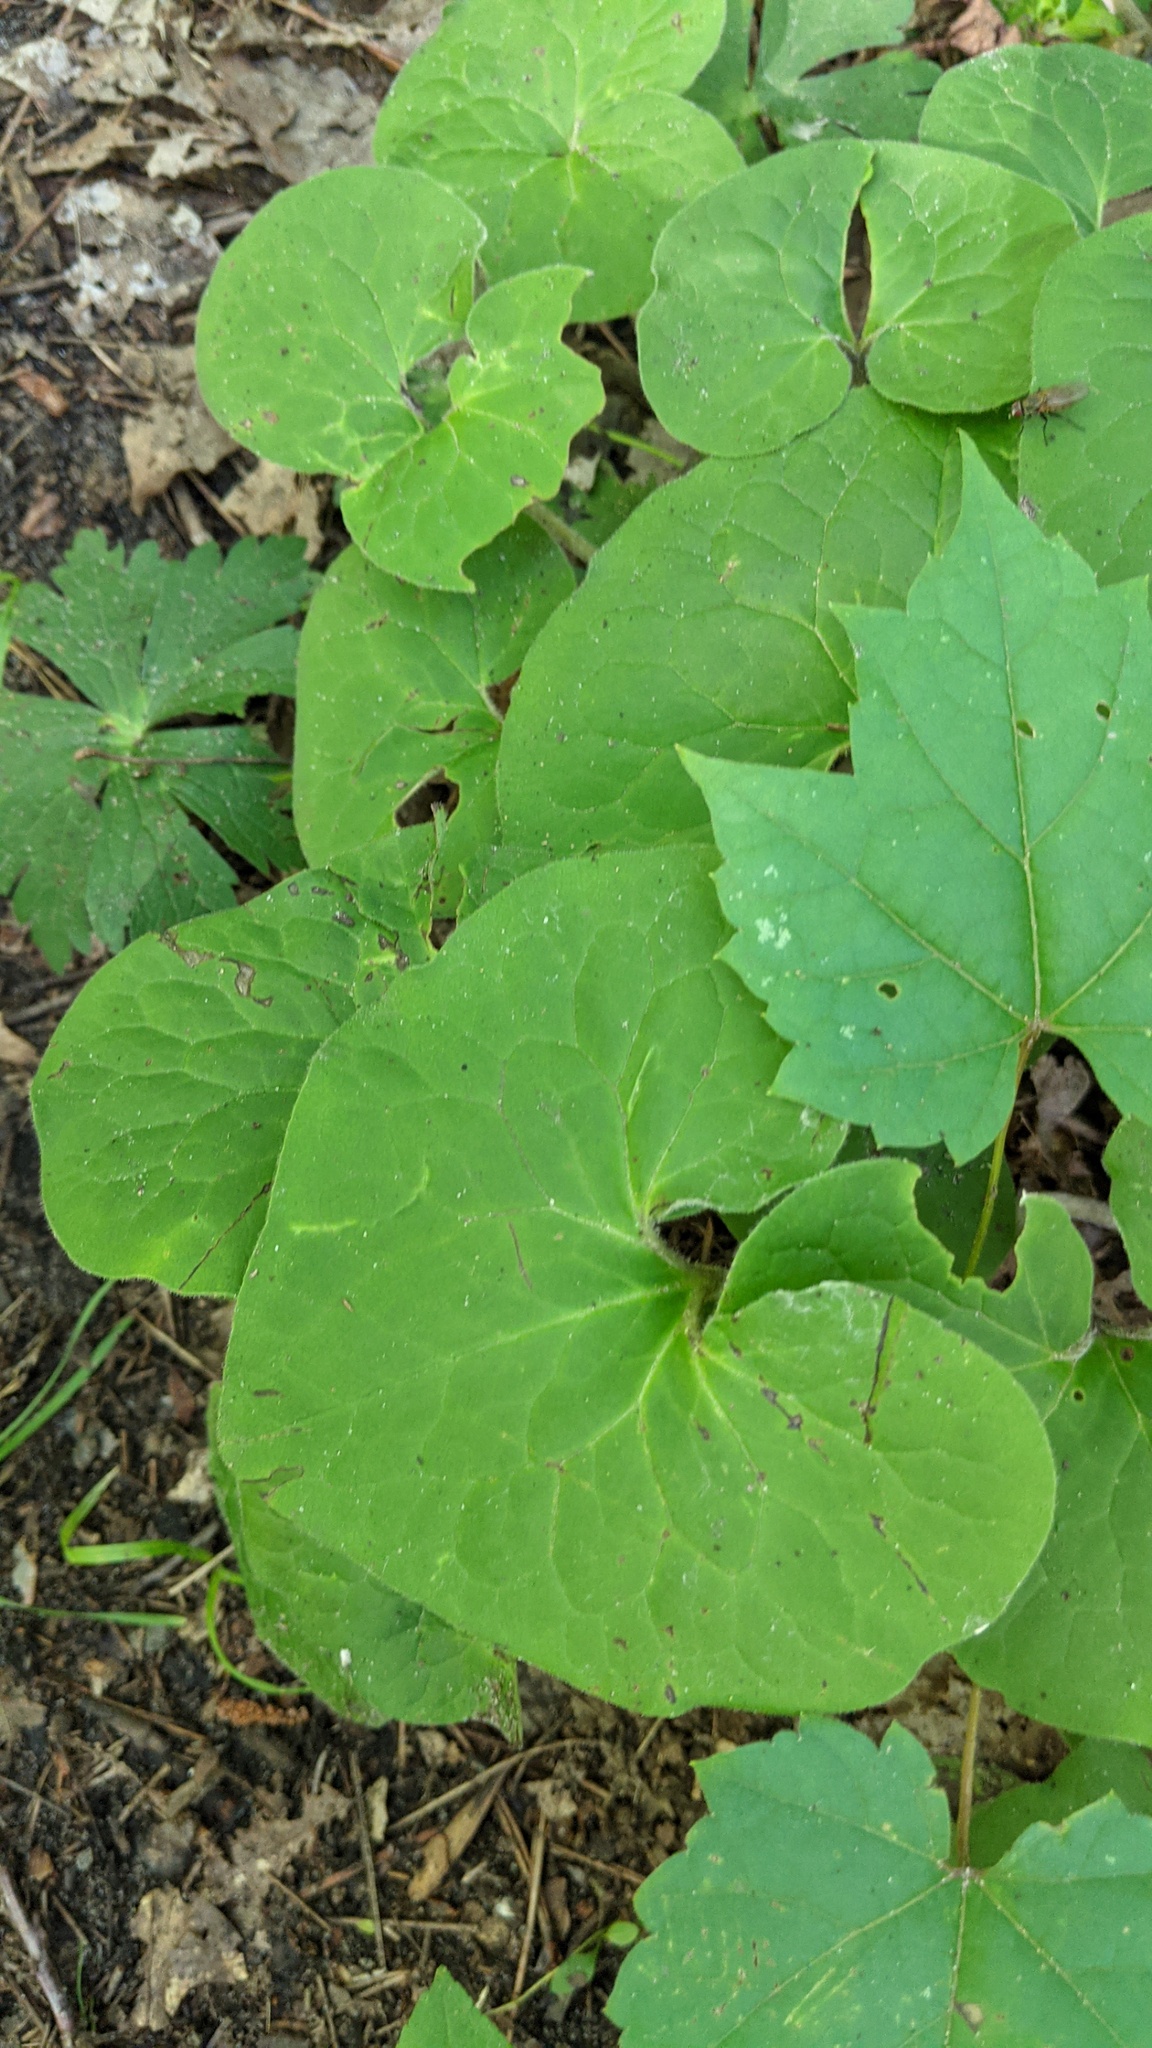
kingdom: Plantae
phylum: Tracheophyta
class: Magnoliopsida
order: Piperales
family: Aristolochiaceae
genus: Asarum
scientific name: Asarum canadense
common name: Wild ginger
